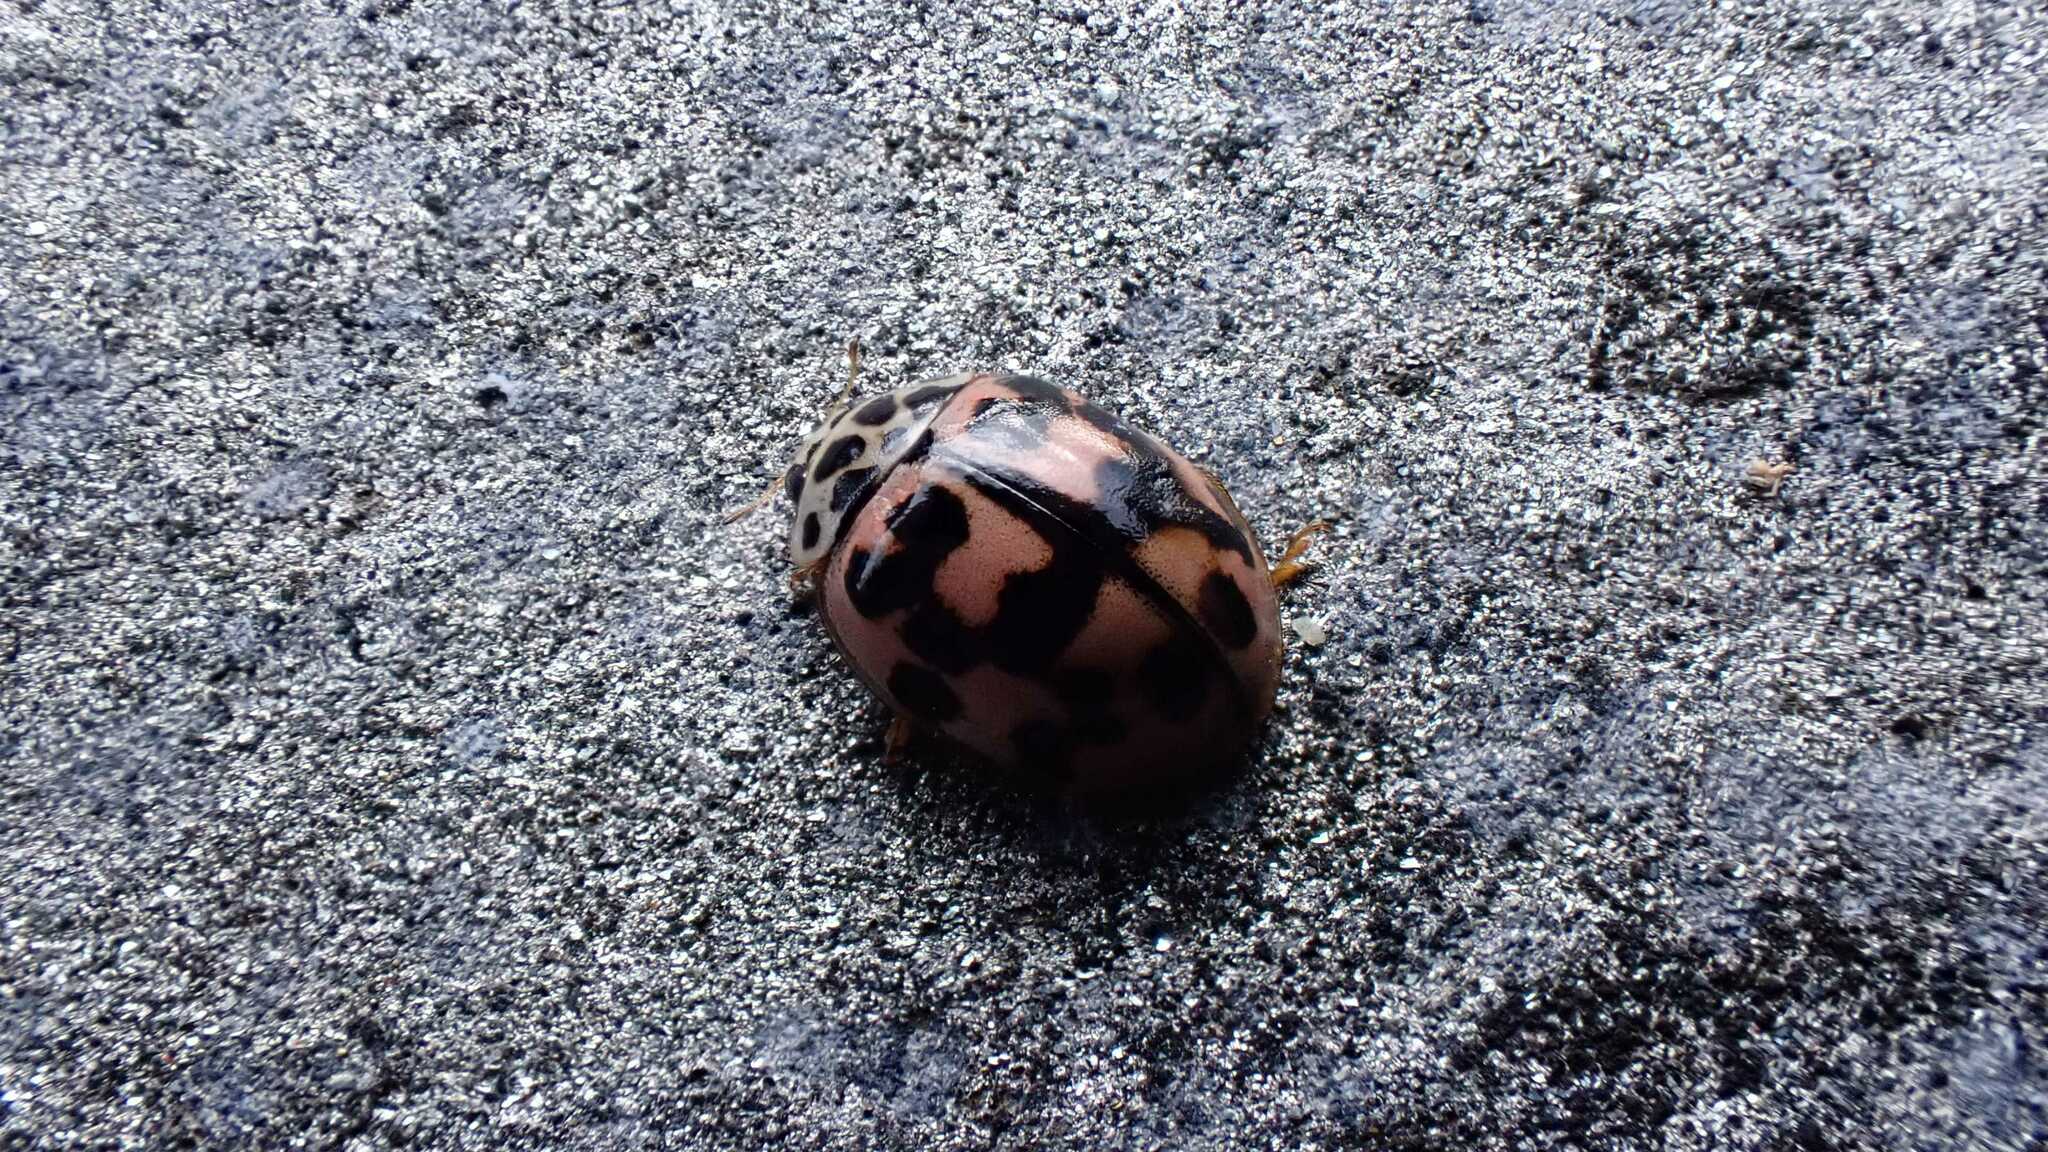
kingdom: Animalia
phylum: Arthropoda
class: Insecta
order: Coleoptera
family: Coccinellidae
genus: Oenopia
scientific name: Oenopia conglobata
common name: Ladybird beetle
